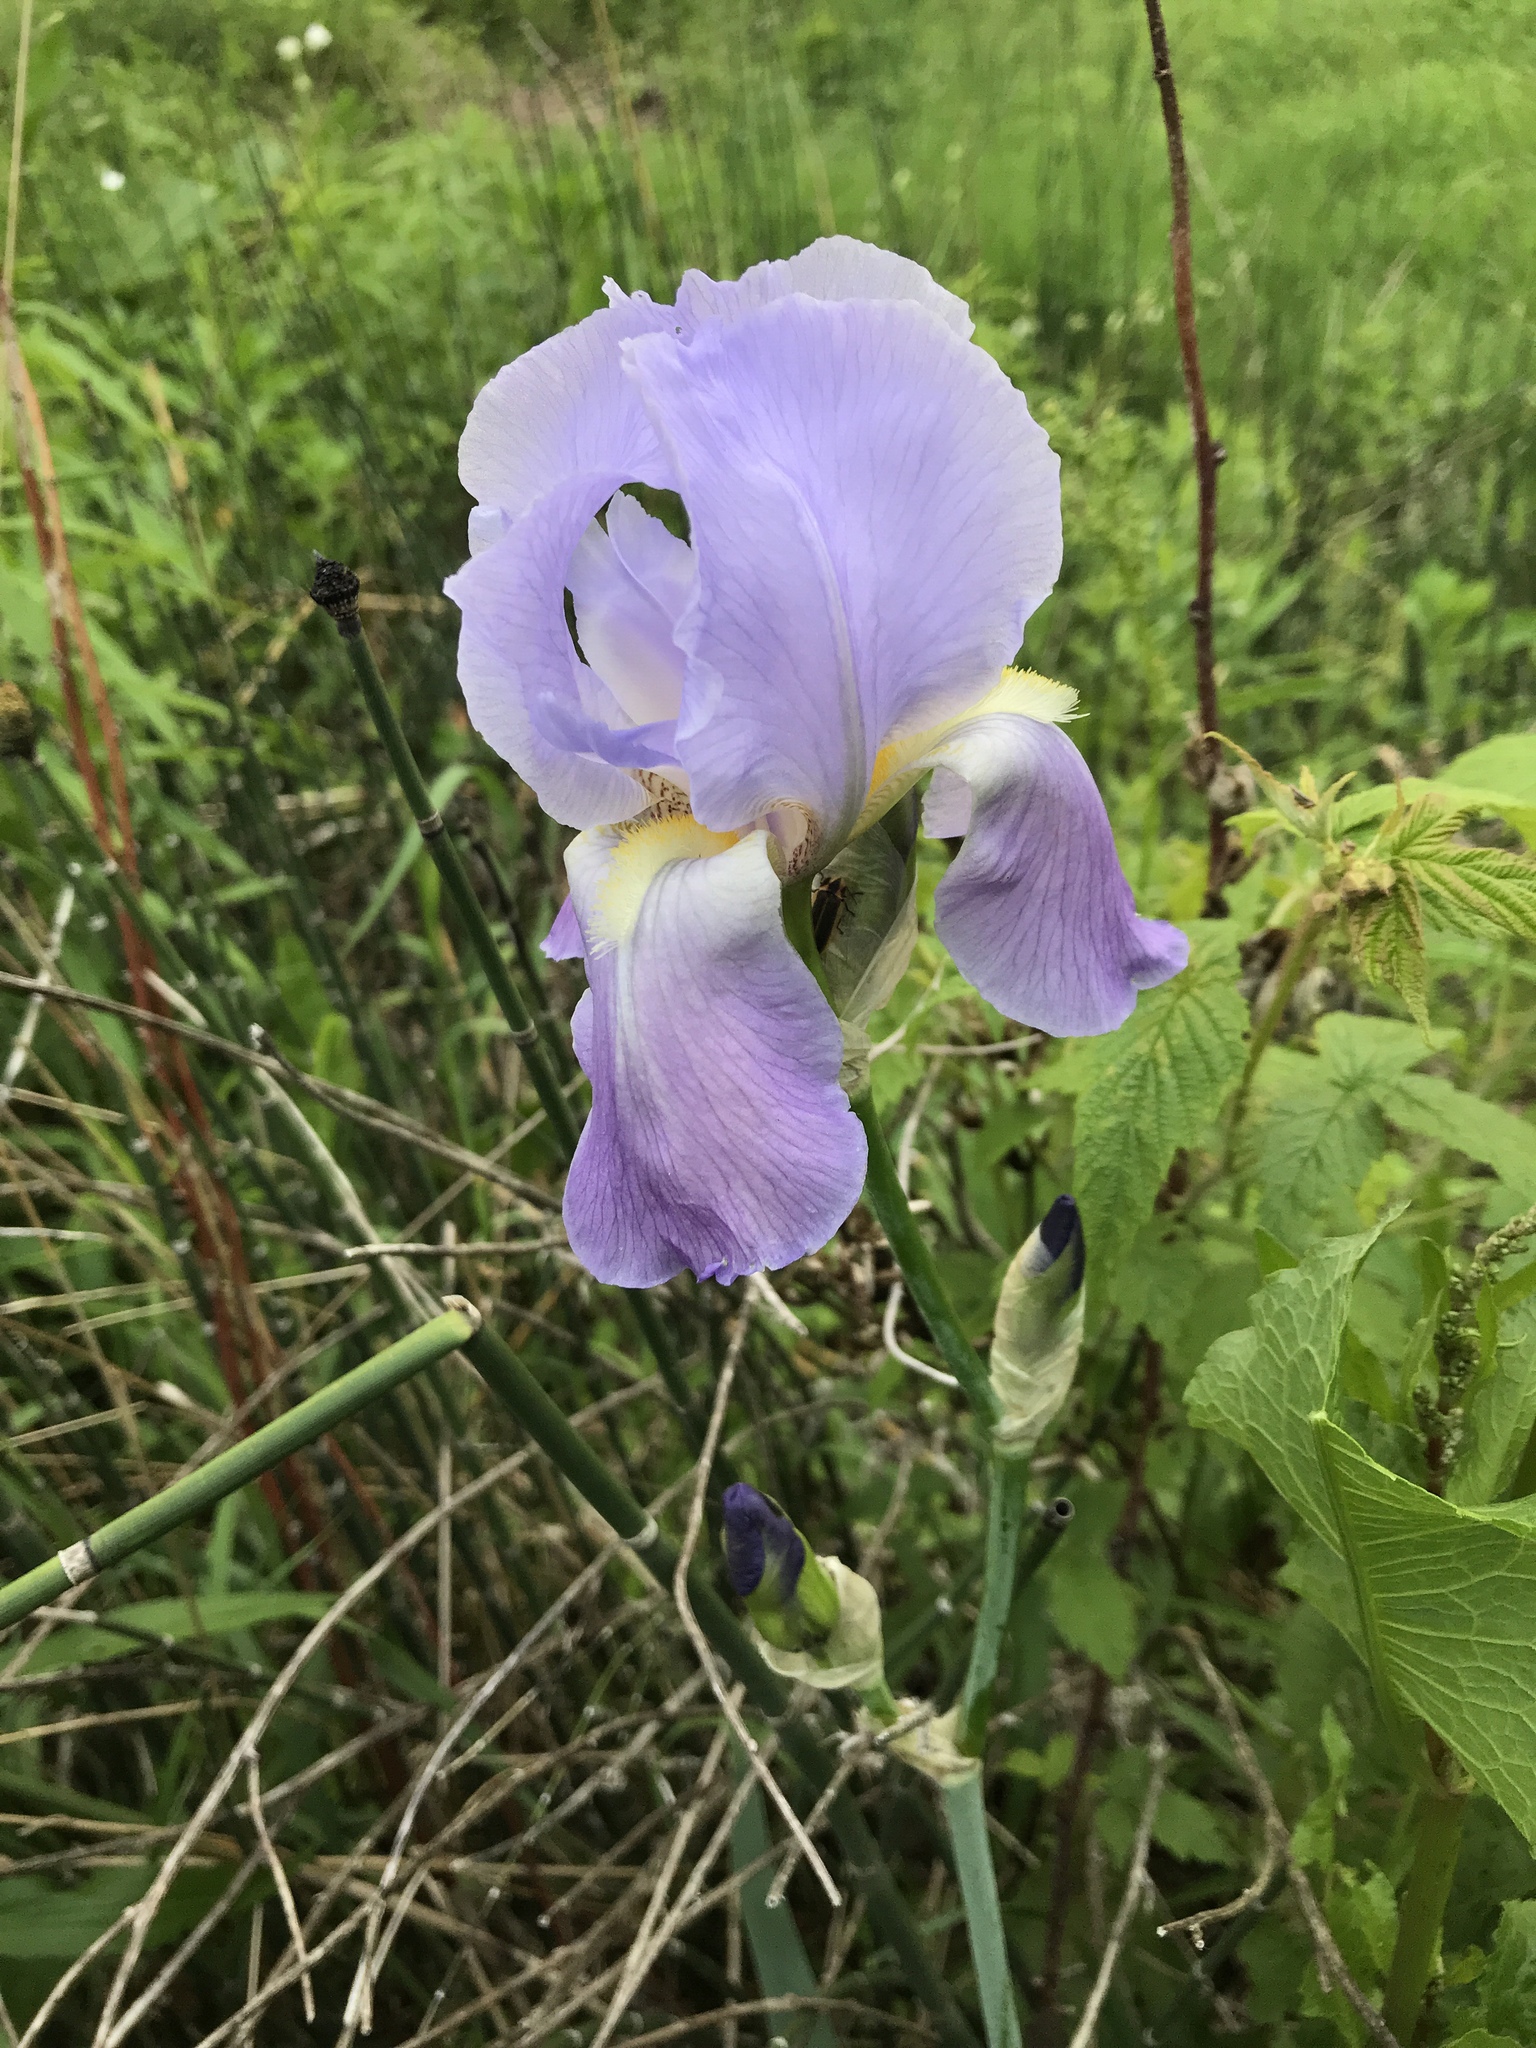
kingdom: Plantae
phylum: Tracheophyta
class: Liliopsida
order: Asparagales
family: Iridaceae
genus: Iris
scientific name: Iris pallida
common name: Sweet iris
